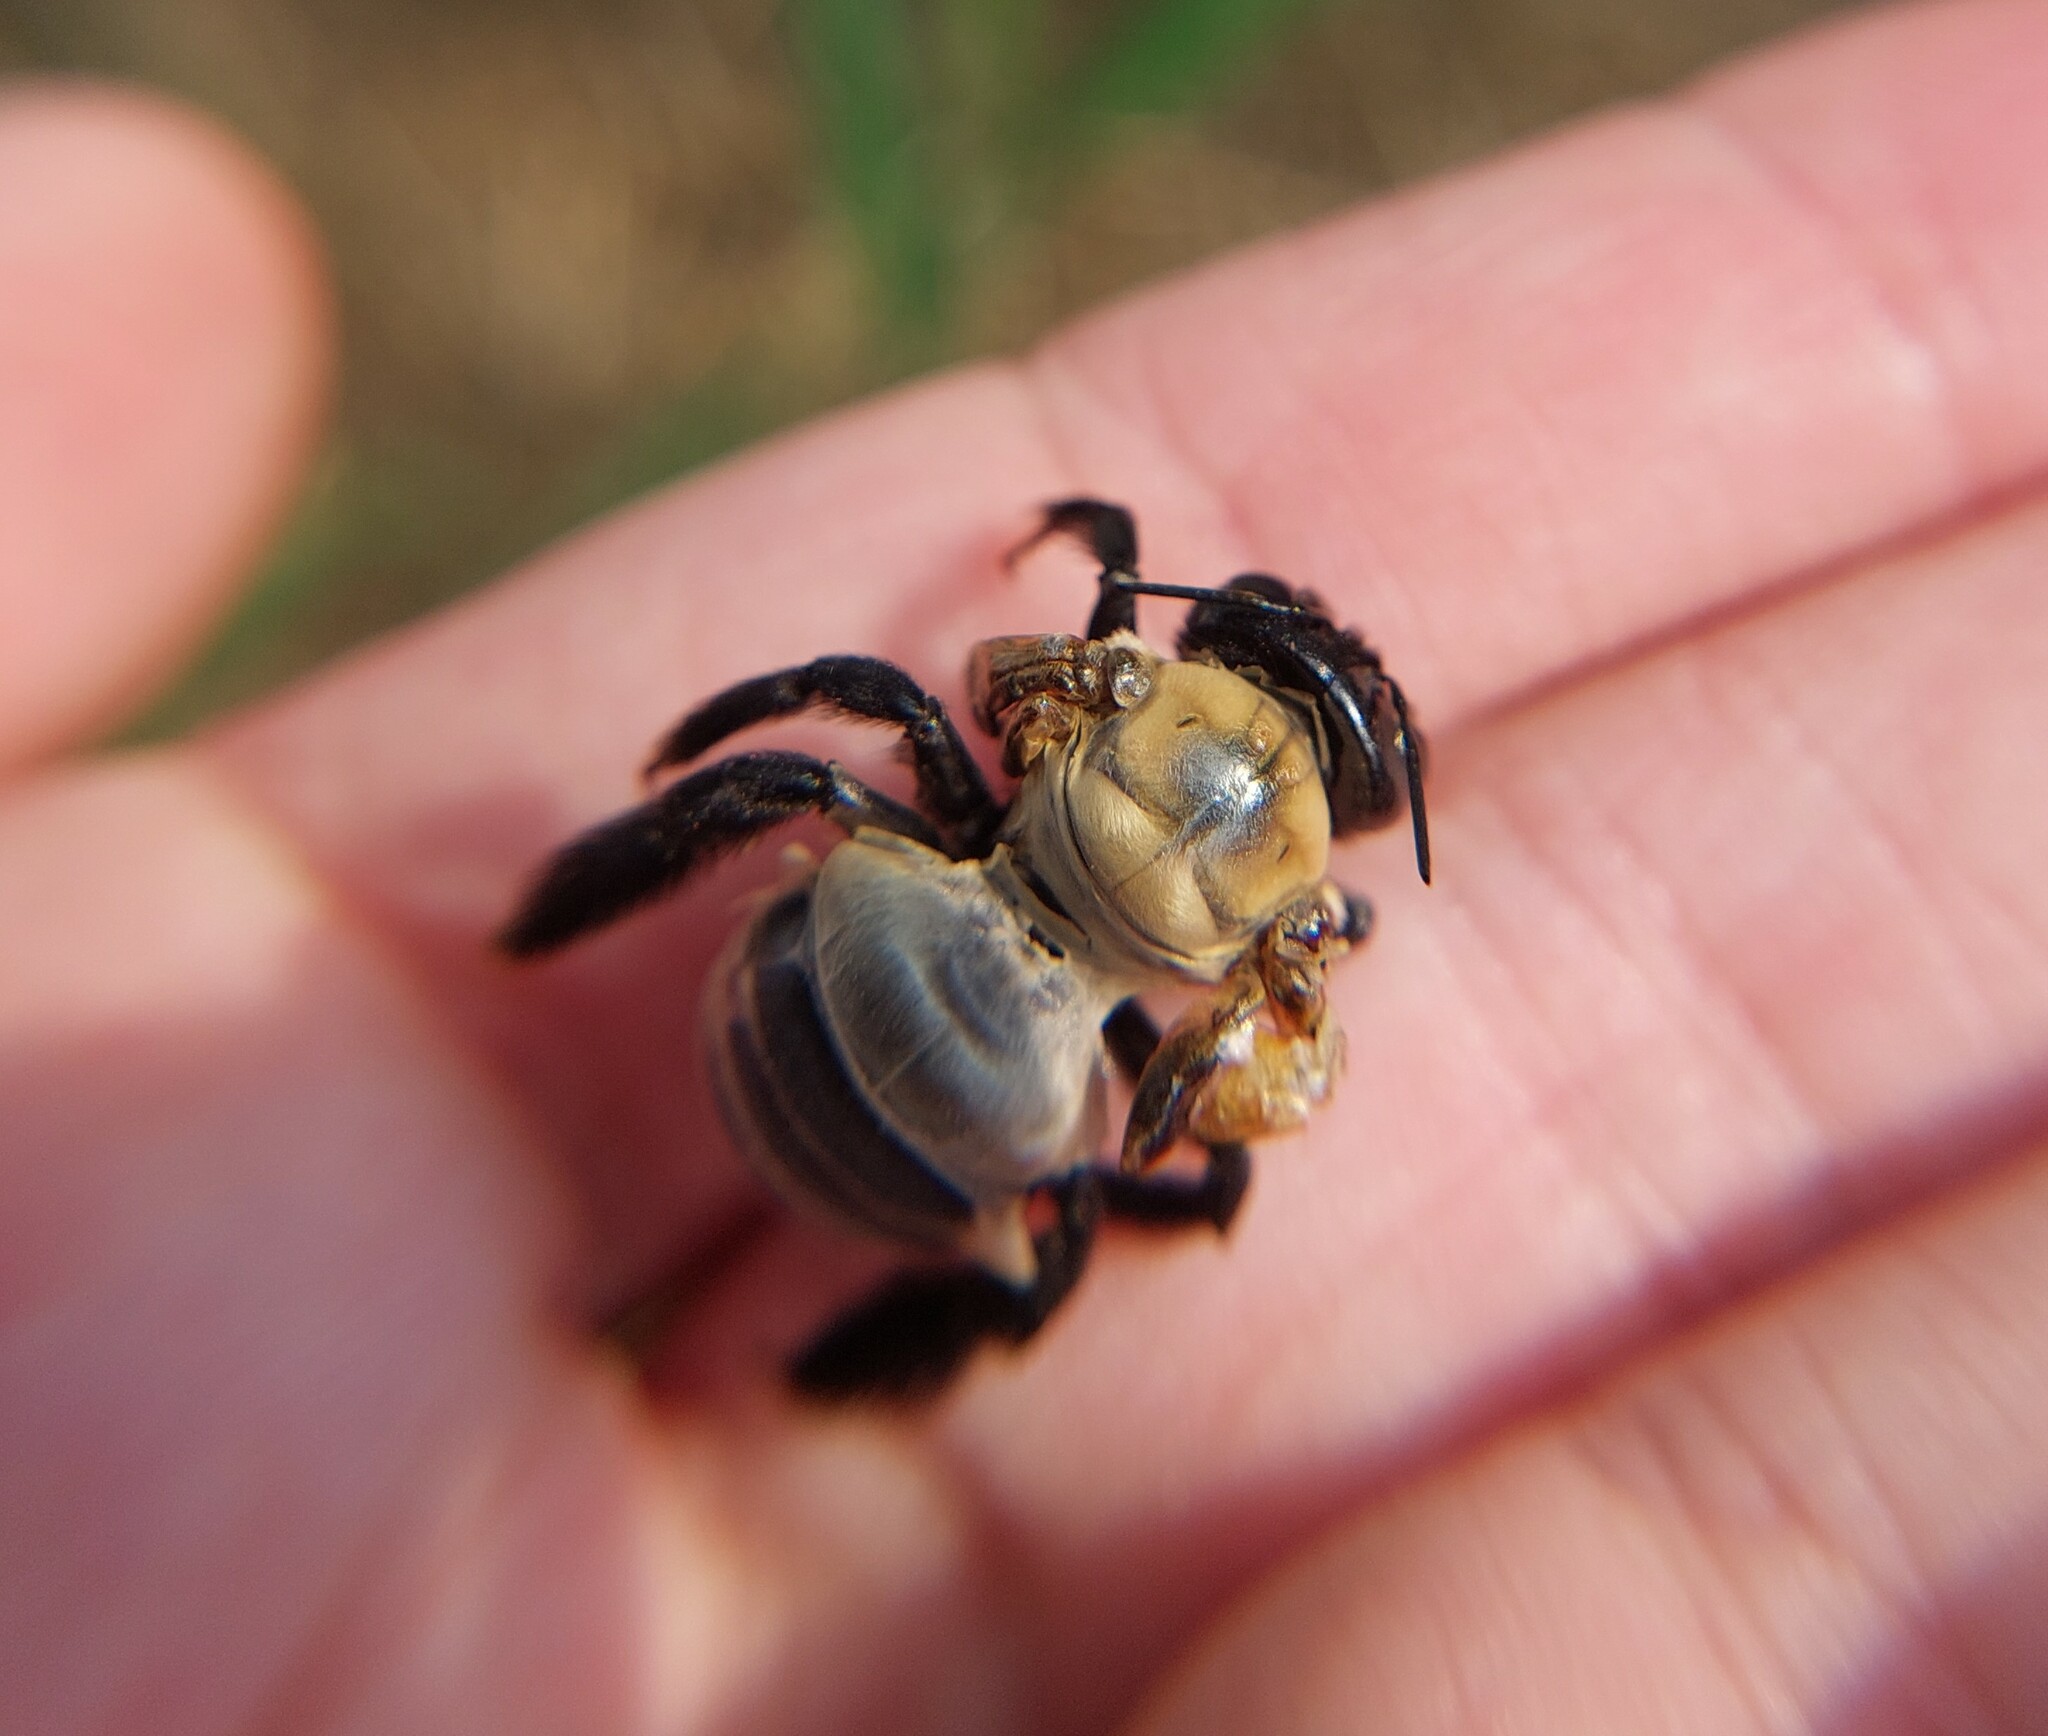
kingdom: Animalia
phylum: Arthropoda
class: Insecta
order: Hymenoptera
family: Apidae
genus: Xylocopa
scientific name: Xylocopa virginica
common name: Carpenter bee
